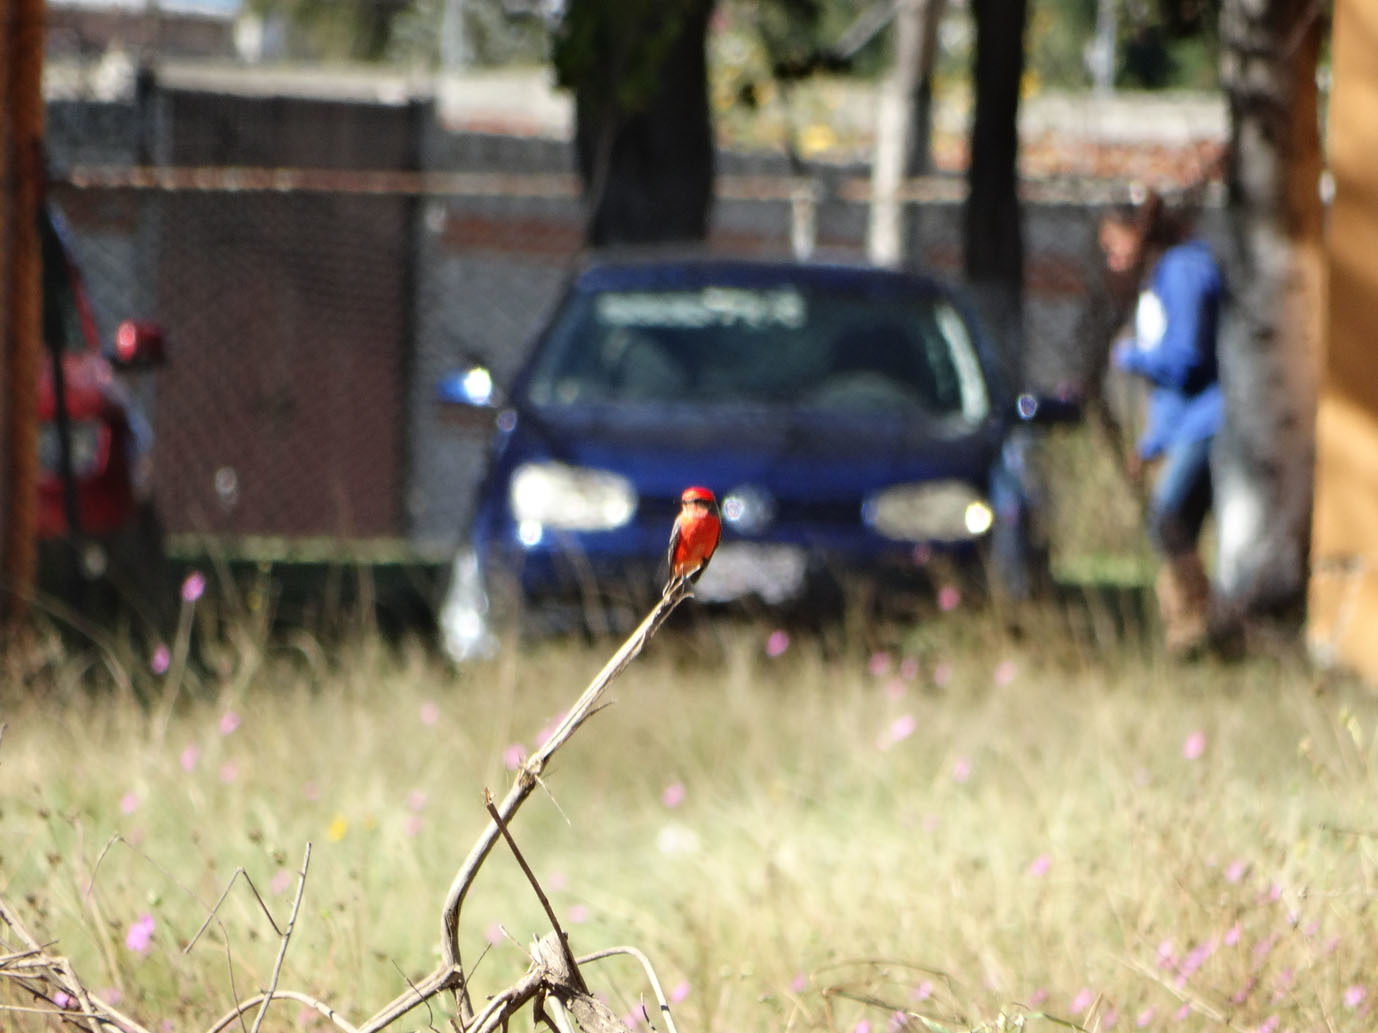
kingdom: Animalia
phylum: Chordata
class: Aves
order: Passeriformes
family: Tyrannidae
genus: Pyrocephalus
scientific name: Pyrocephalus rubinus
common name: Vermilion flycatcher
